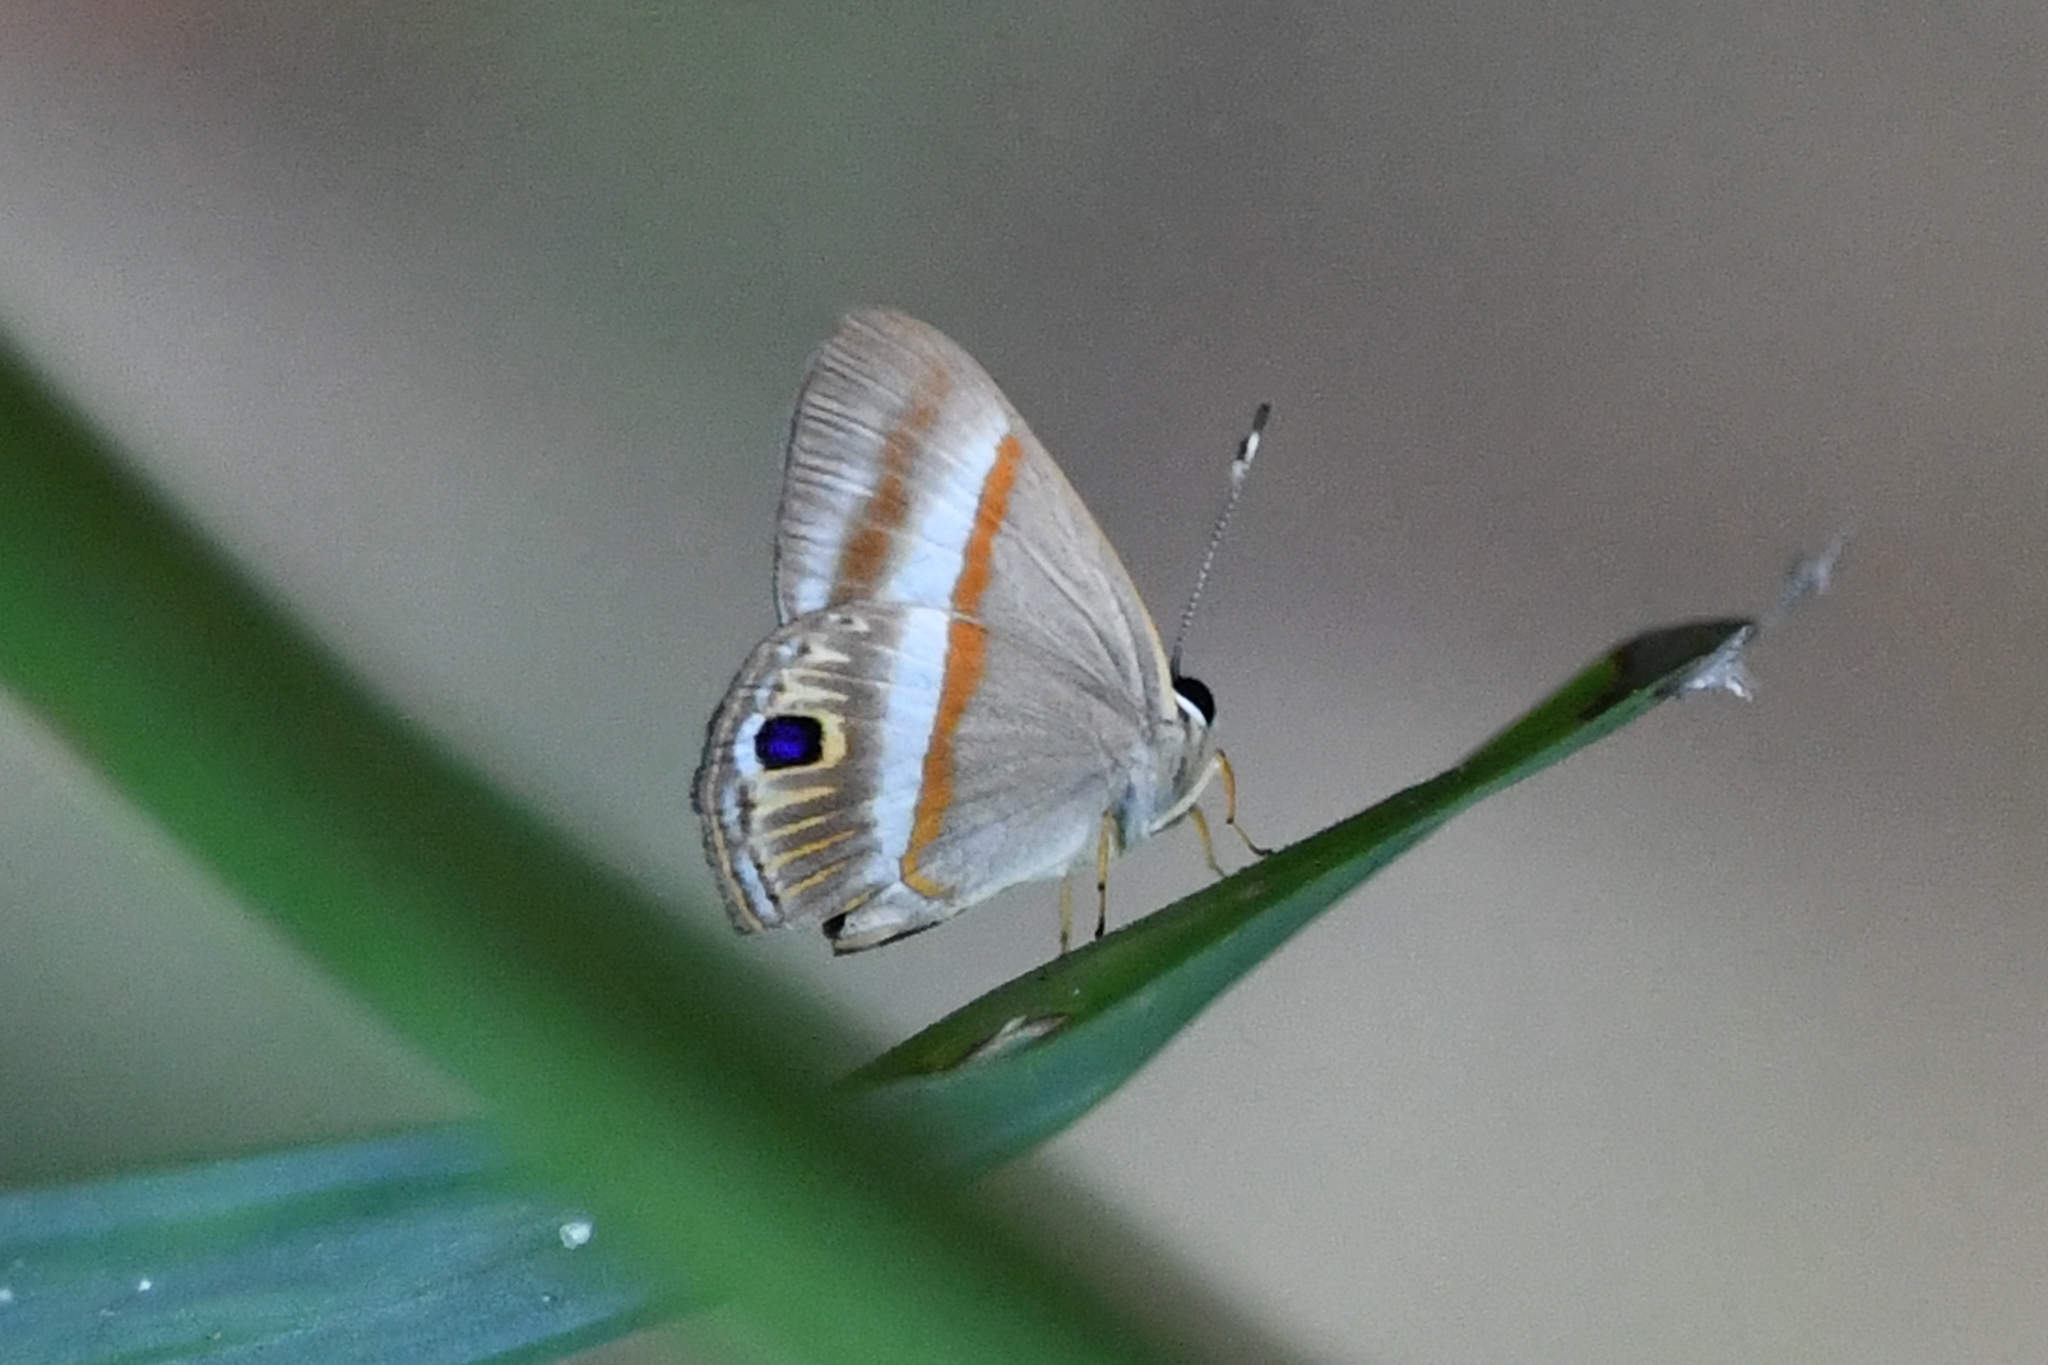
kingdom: Animalia
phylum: Arthropoda
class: Insecta
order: Lepidoptera
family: Lycaenidae
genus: Euselasia
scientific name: Euselasia regipennis
